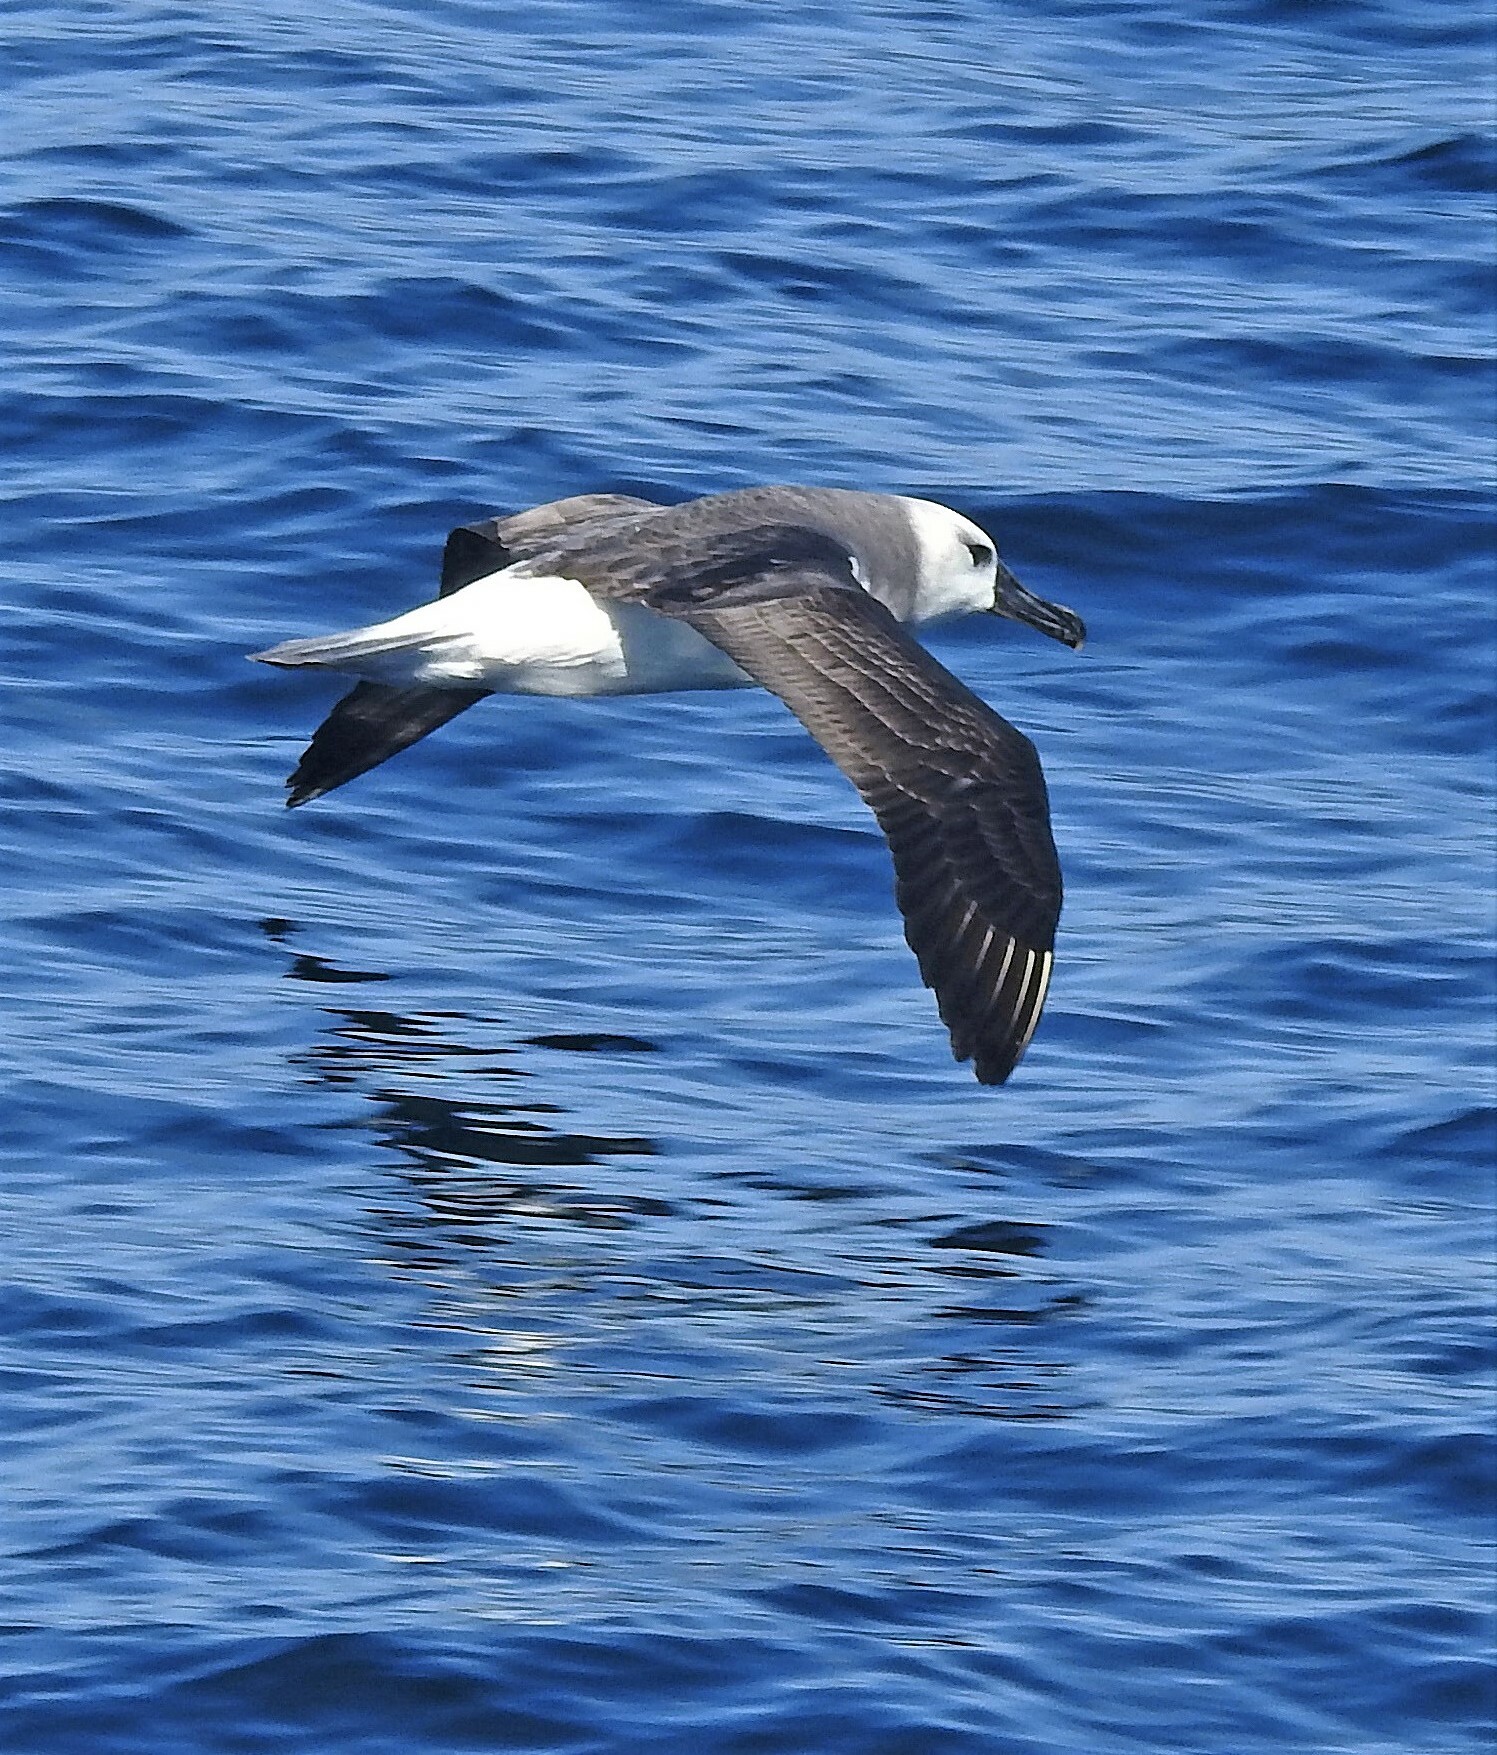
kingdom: Animalia
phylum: Chordata
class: Aves
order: Procellariiformes
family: Diomedeidae
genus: Thalassarche
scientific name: Thalassarche chrysostoma
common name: Grey-headed albatross
